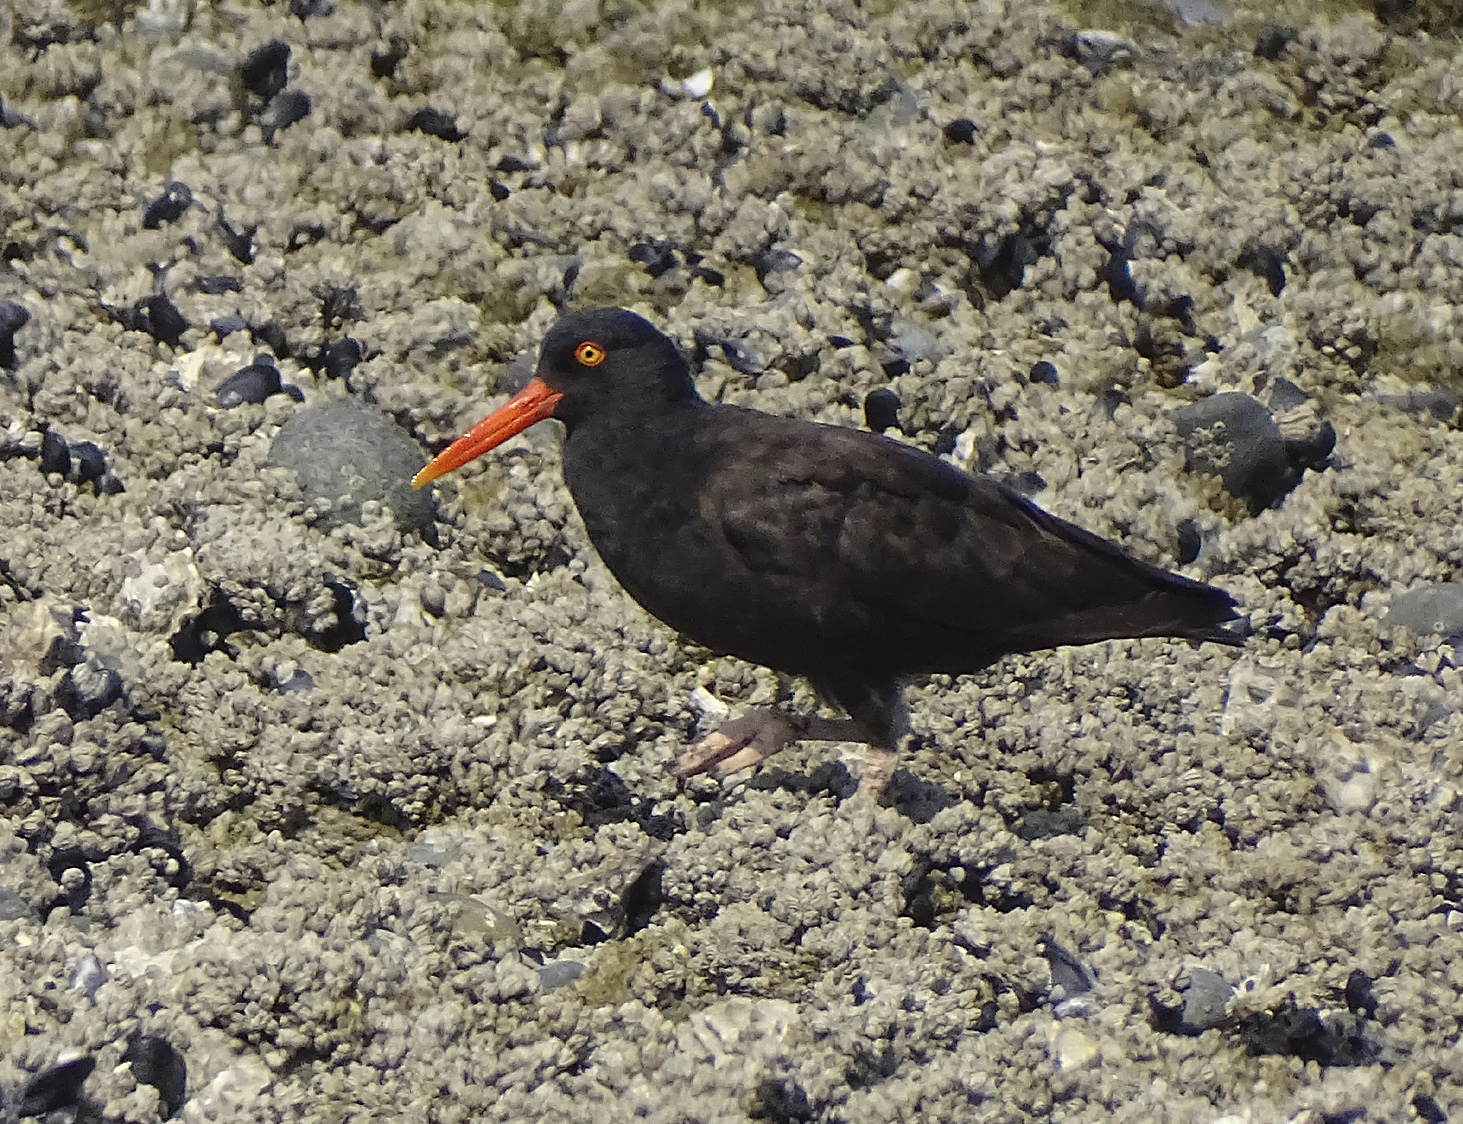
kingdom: Animalia
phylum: Chordata
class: Aves
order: Charadriiformes
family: Haematopodidae
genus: Haematopus
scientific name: Haematopus bachmani
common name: Black oystercatcher
